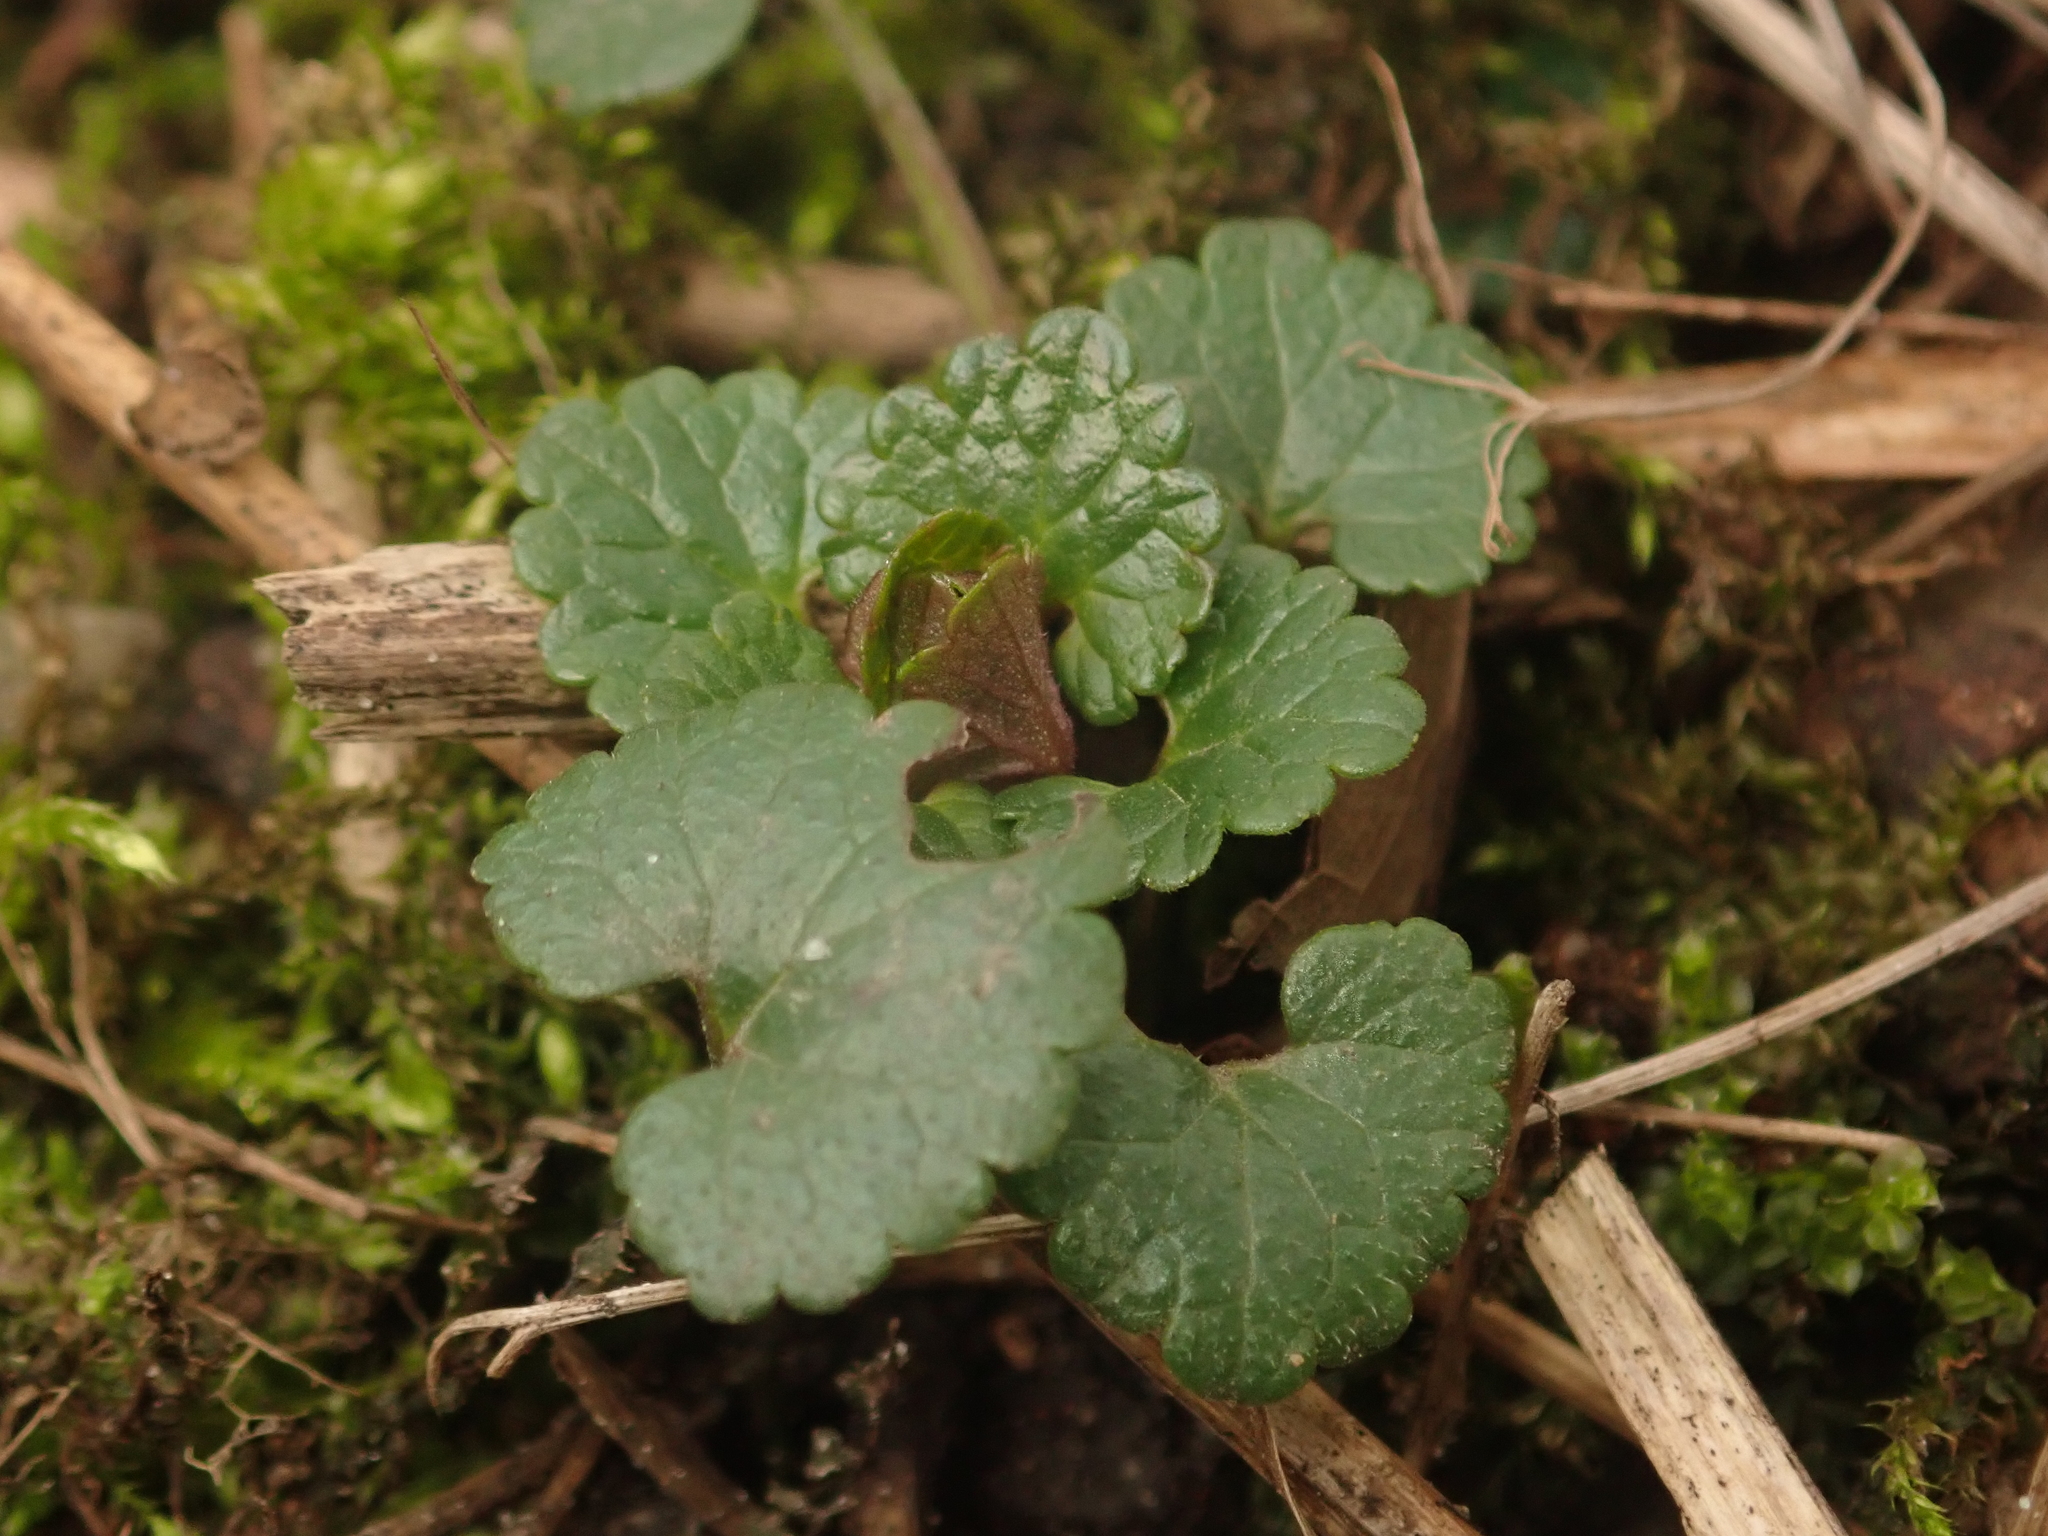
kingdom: Plantae
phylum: Tracheophyta
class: Magnoliopsida
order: Lamiales
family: Lamiaceae
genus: Glechoma
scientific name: Glechoma hederacea
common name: Ground ivy
